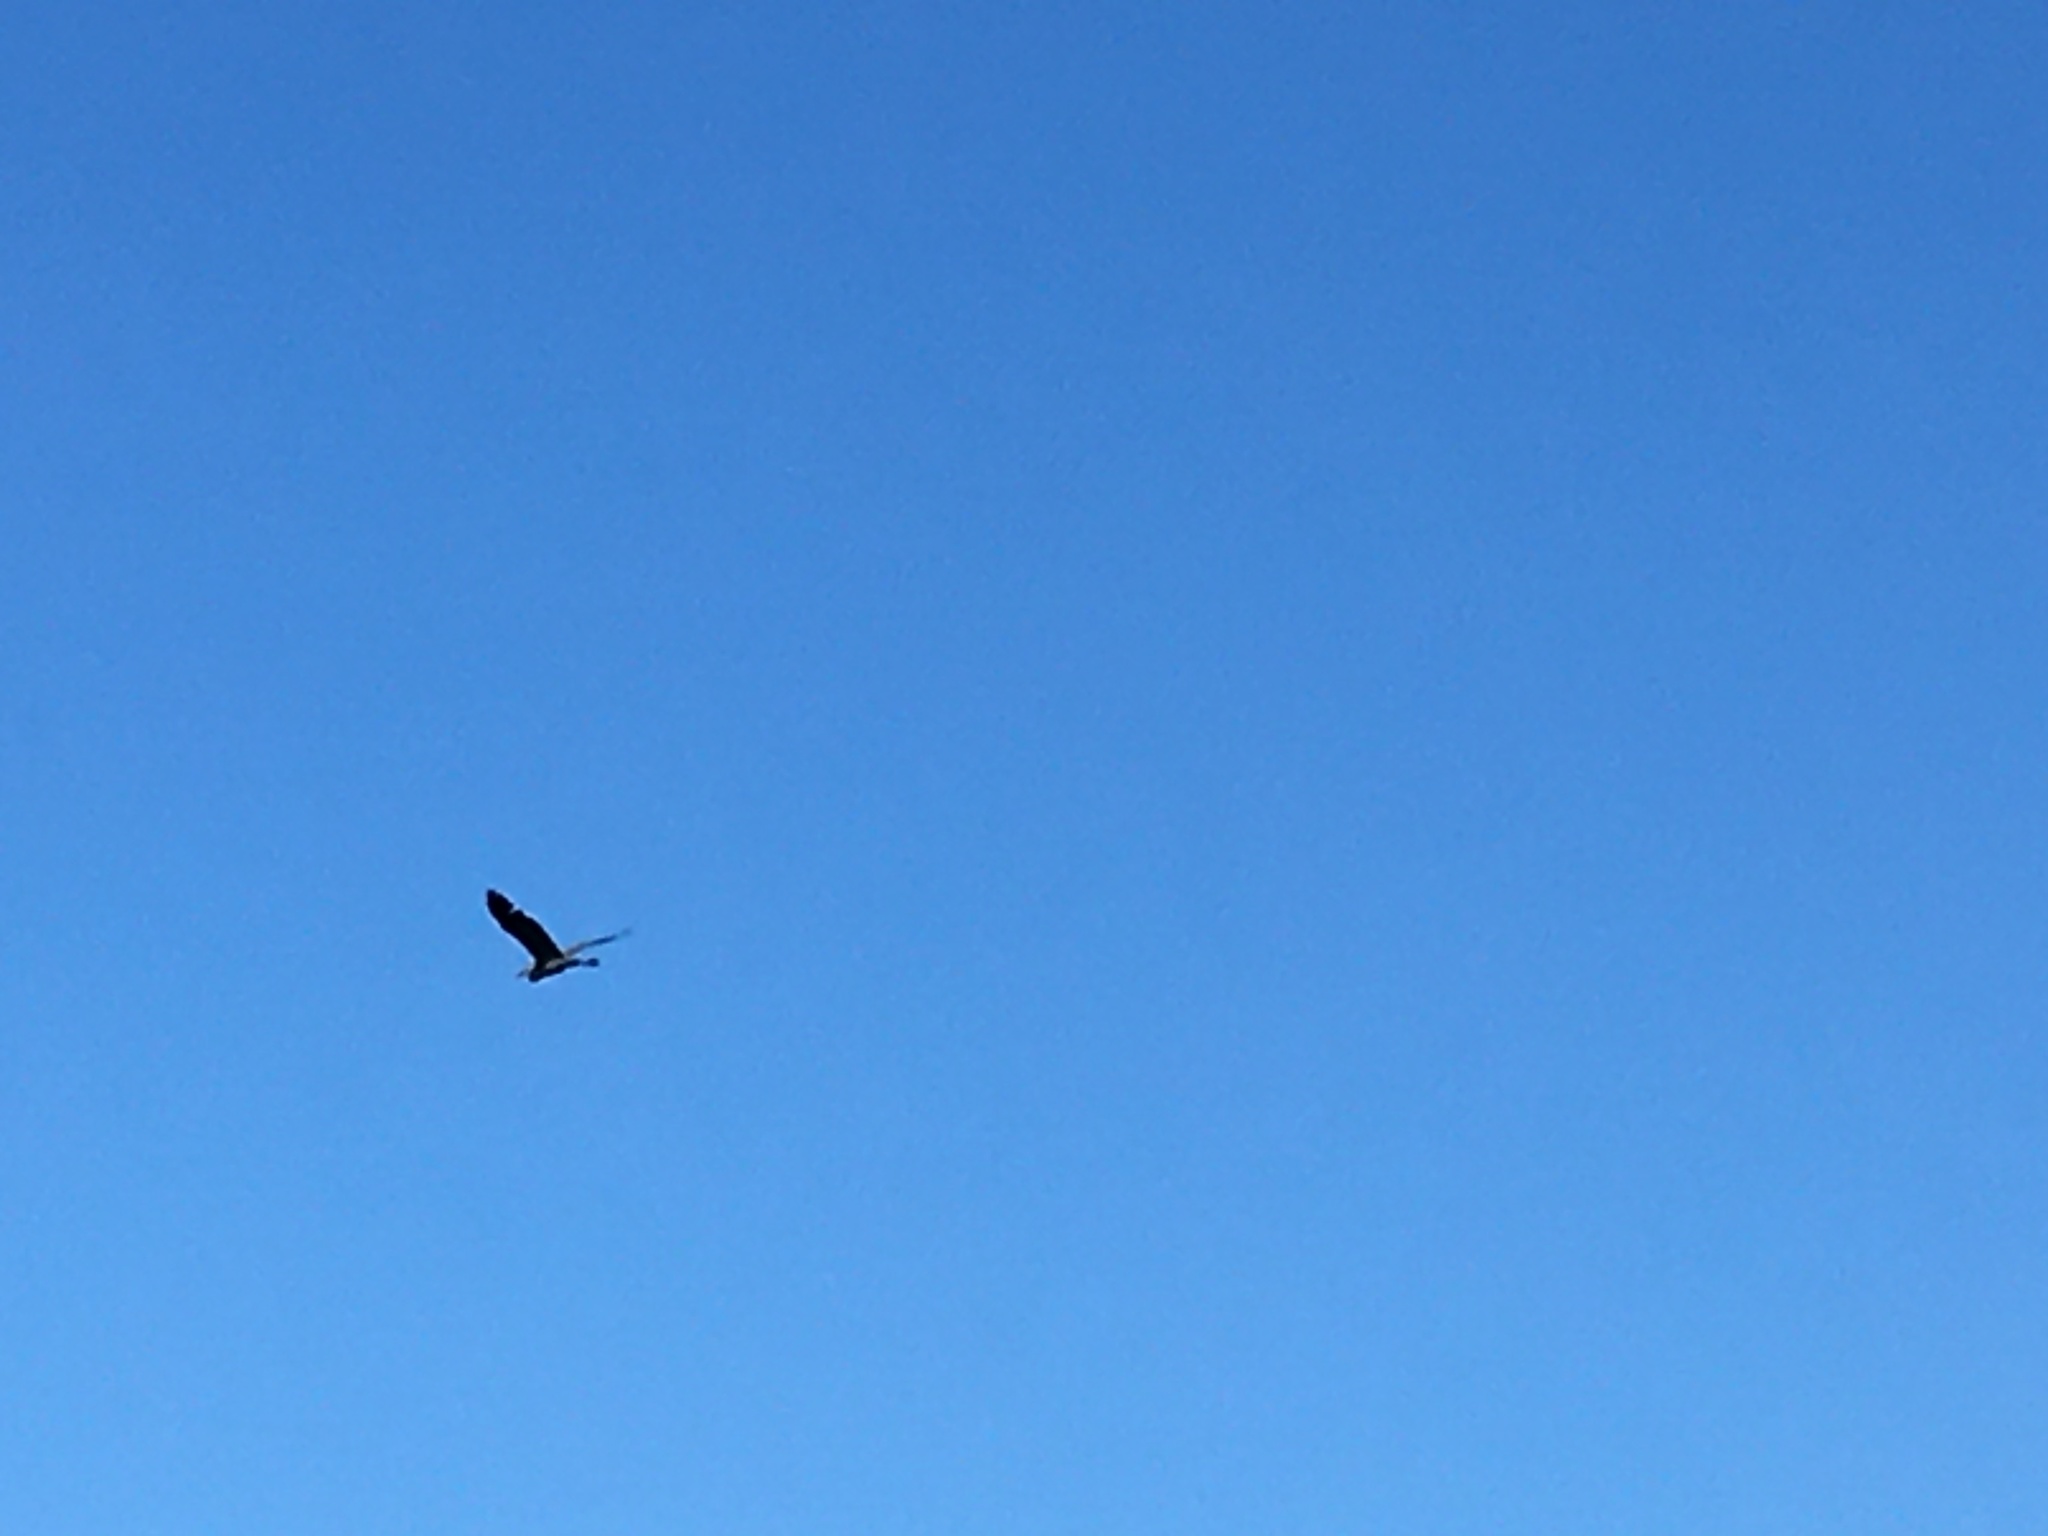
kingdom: Animalia
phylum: Chordata
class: Aves
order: Pelecaniformes
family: Ardeidae
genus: Ardea
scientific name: Ardea herodias
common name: Great blue heron
